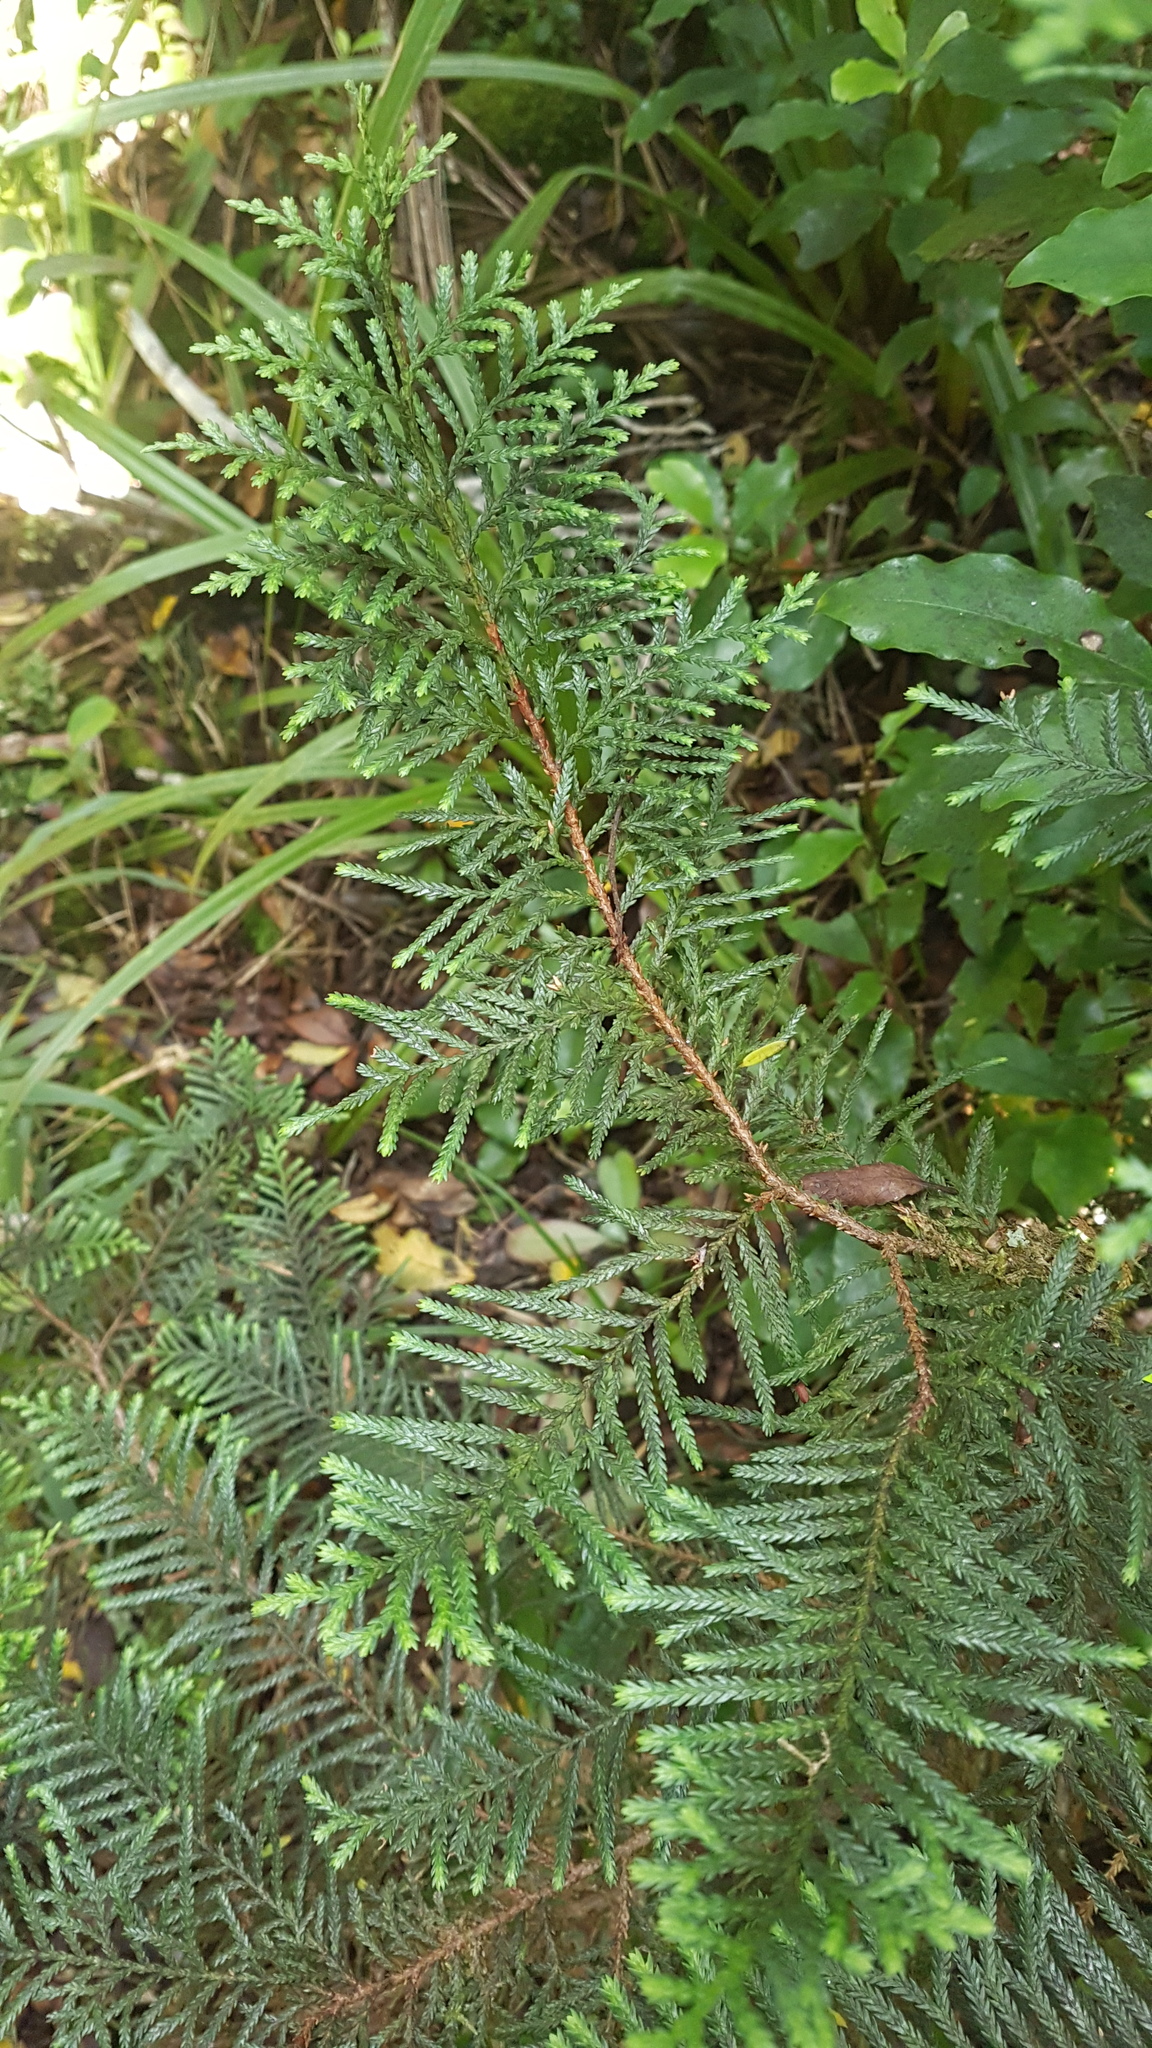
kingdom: Plantae
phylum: Tracheophyta
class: Pinopsida
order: Pinales
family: Cupressaceae
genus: Libocedrus
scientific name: Libocedrus bidwillii
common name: Cedar
